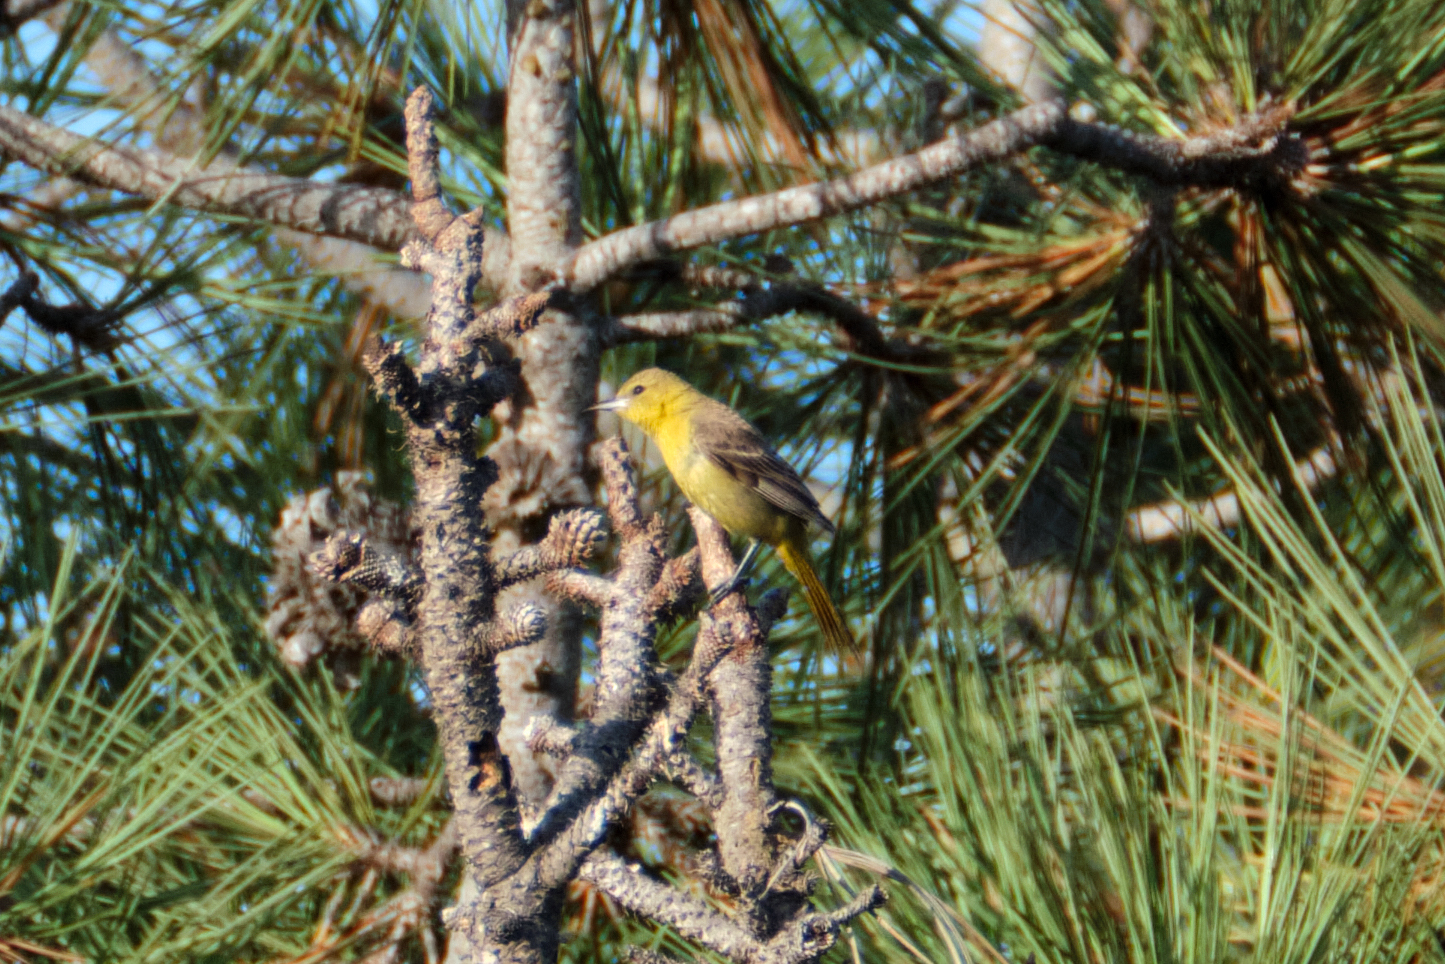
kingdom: Animalia
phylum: Chordata
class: Aves
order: Passeriformes
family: Icteridae
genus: Icterus
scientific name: Icterus cucullatus
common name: Hooded oriole
